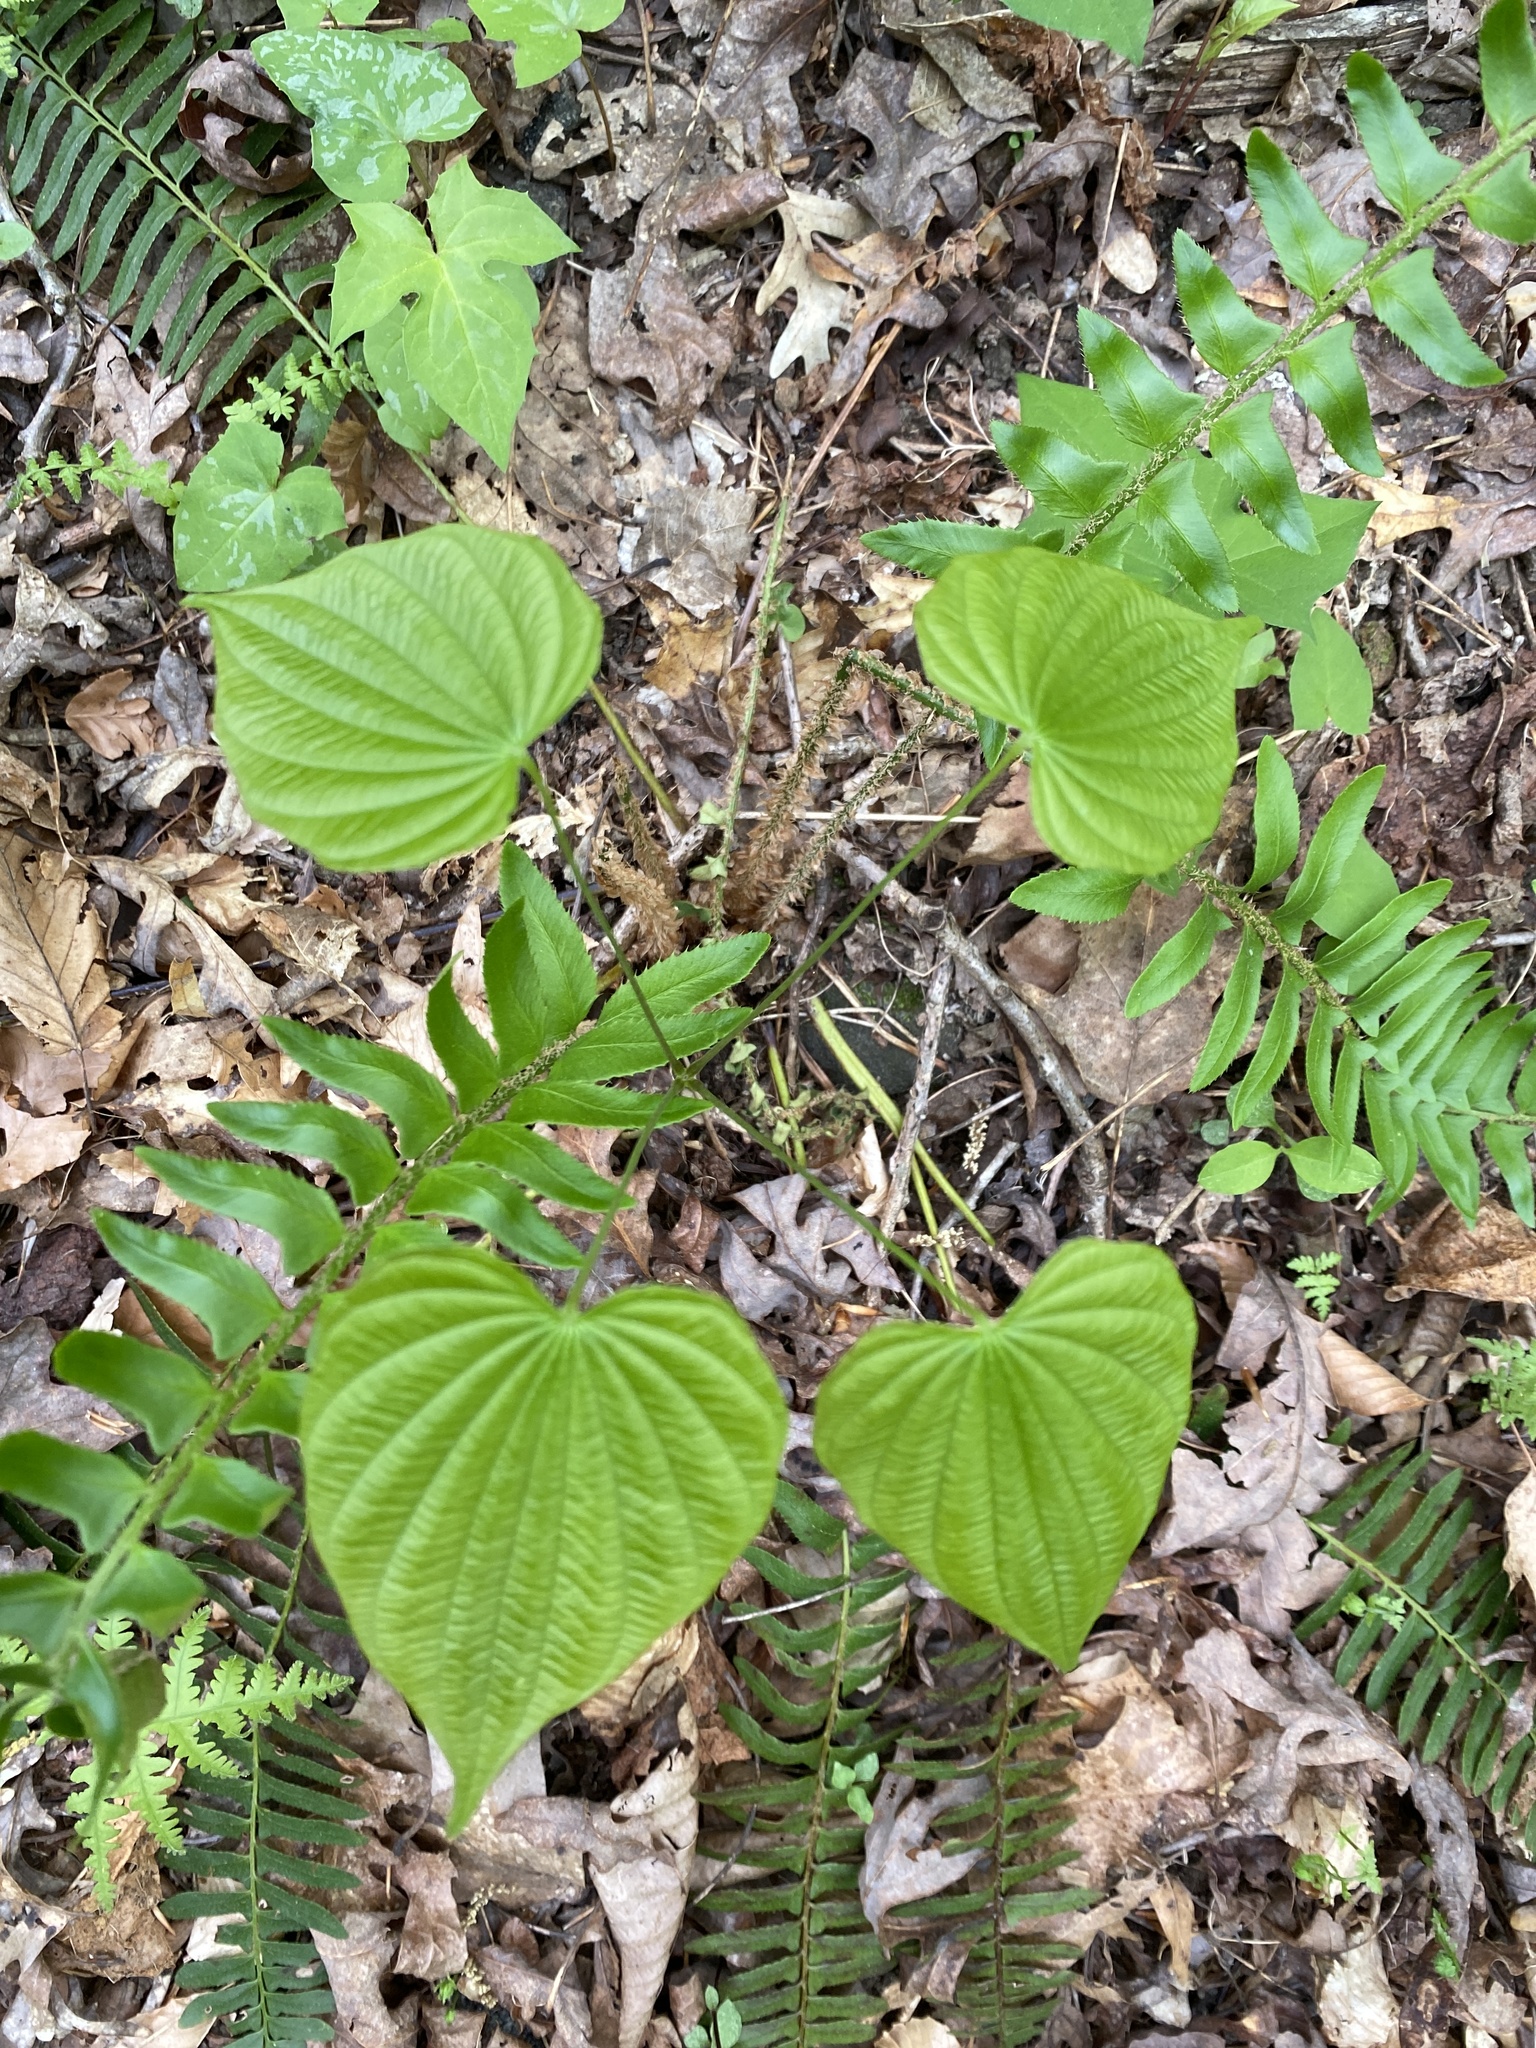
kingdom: Plantae
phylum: Tracheophyta
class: Liliopsida
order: Dioscoreales
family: Dioscoreaceae
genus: Dioscorea
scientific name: Dioscorea villosa
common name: Wild yam
